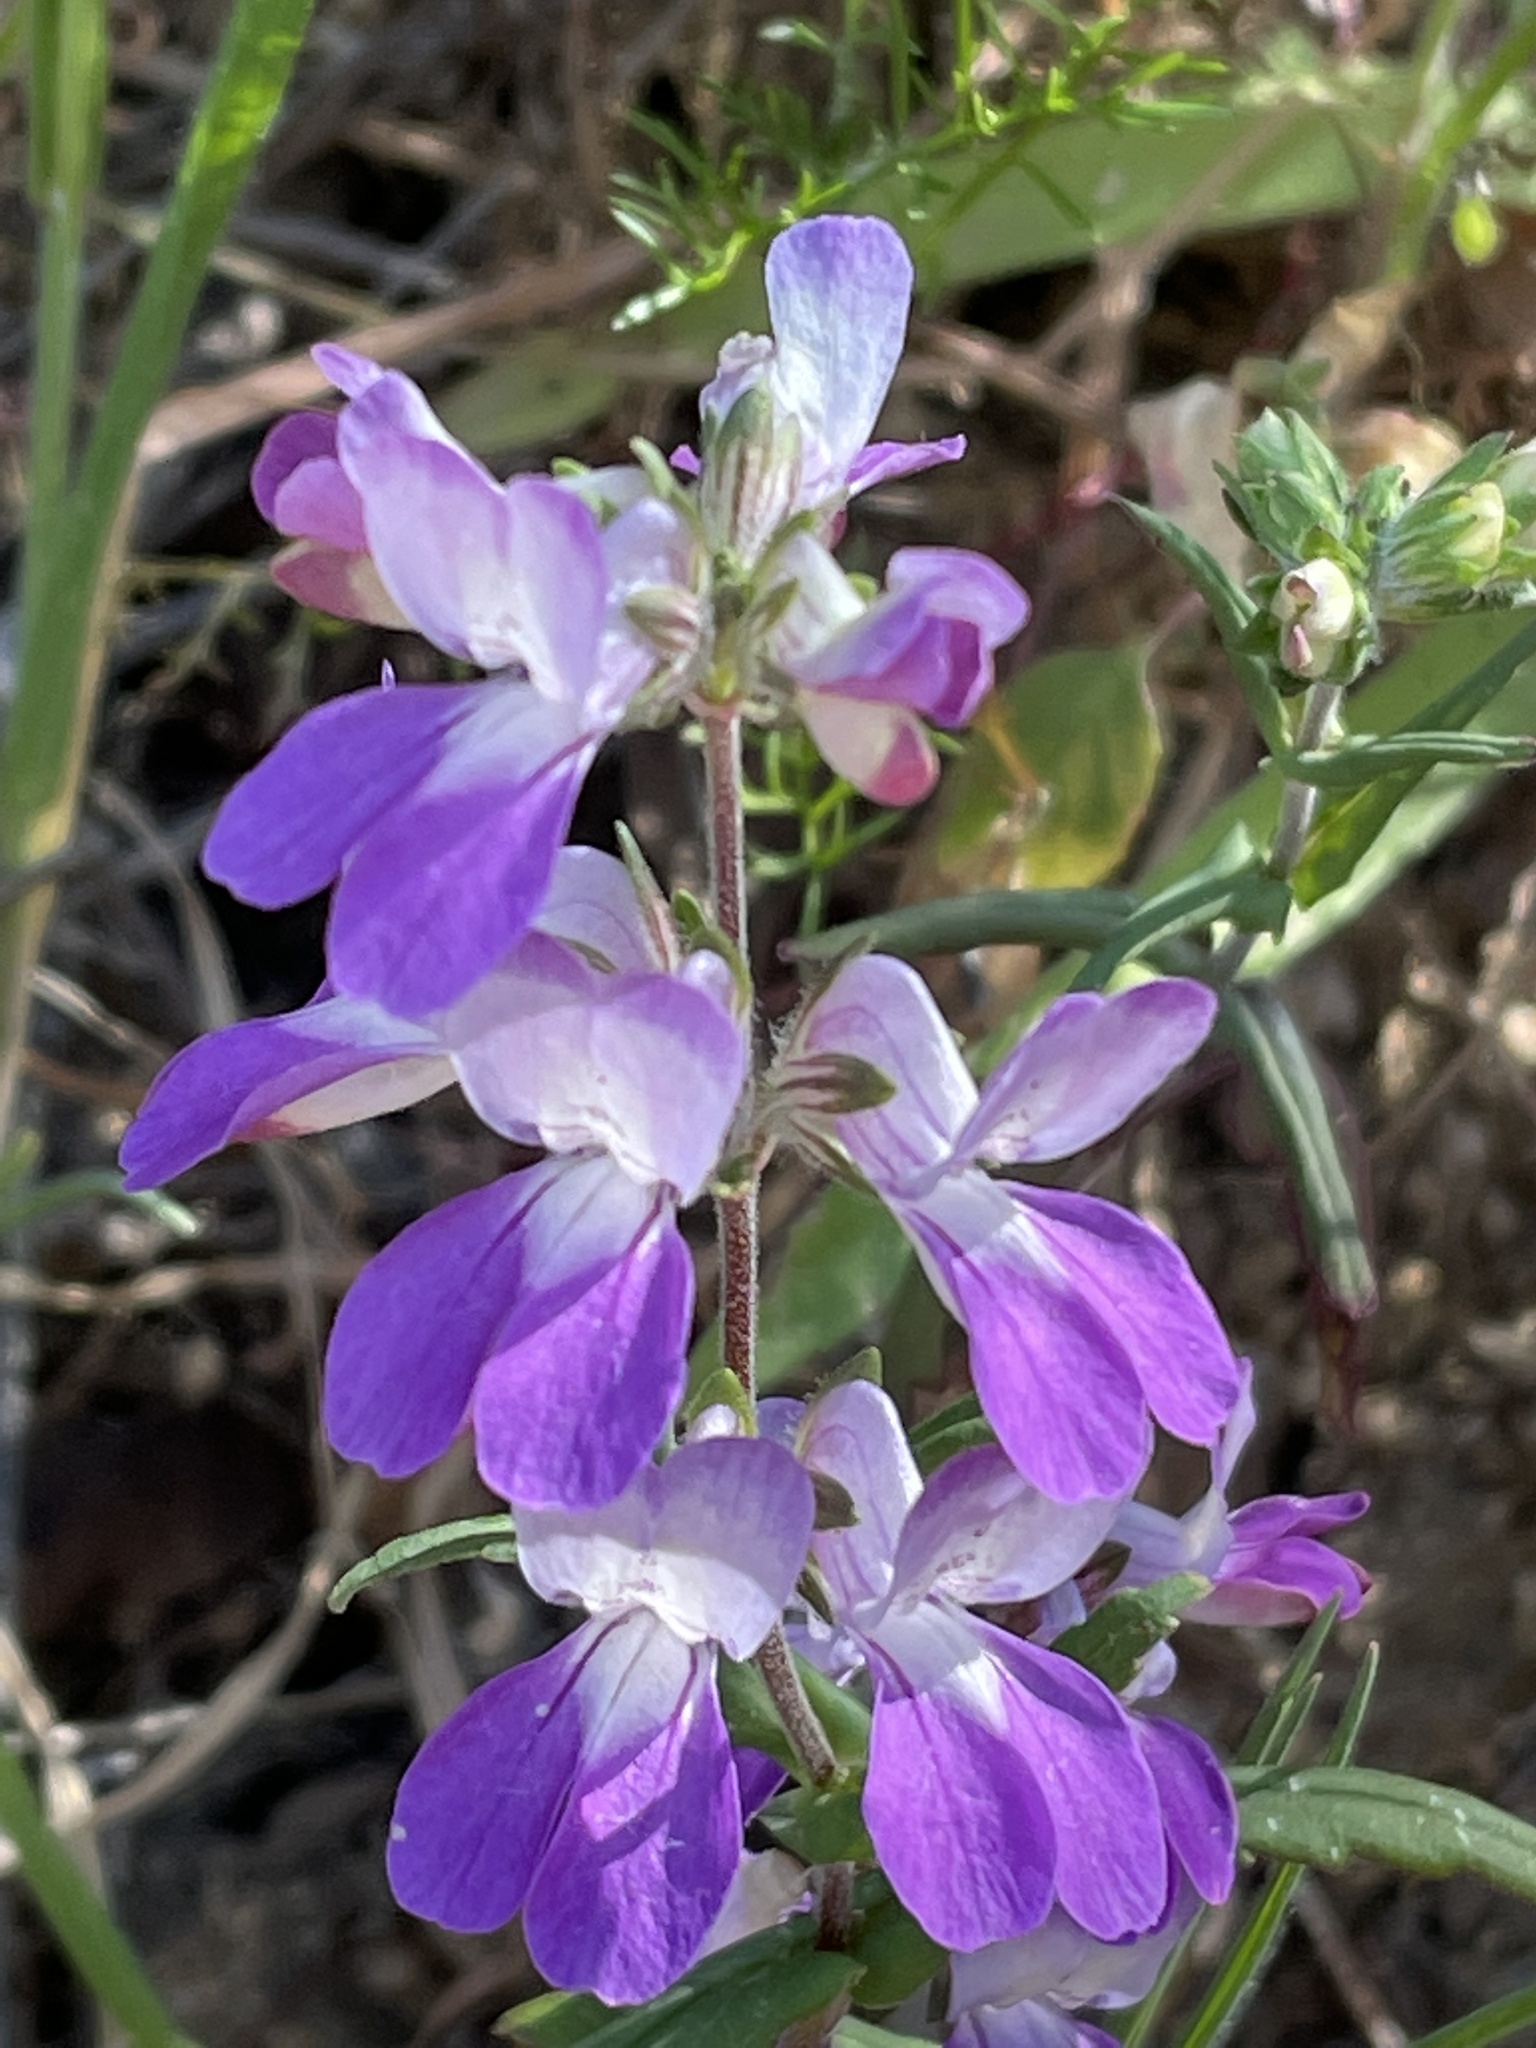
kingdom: Plantae
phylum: Tracheophyta
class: Magnoliopsida
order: Lamiales
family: Plantaginaceae
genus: Collinsia
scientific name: Collinsia heterophylla
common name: Chinese-houses
